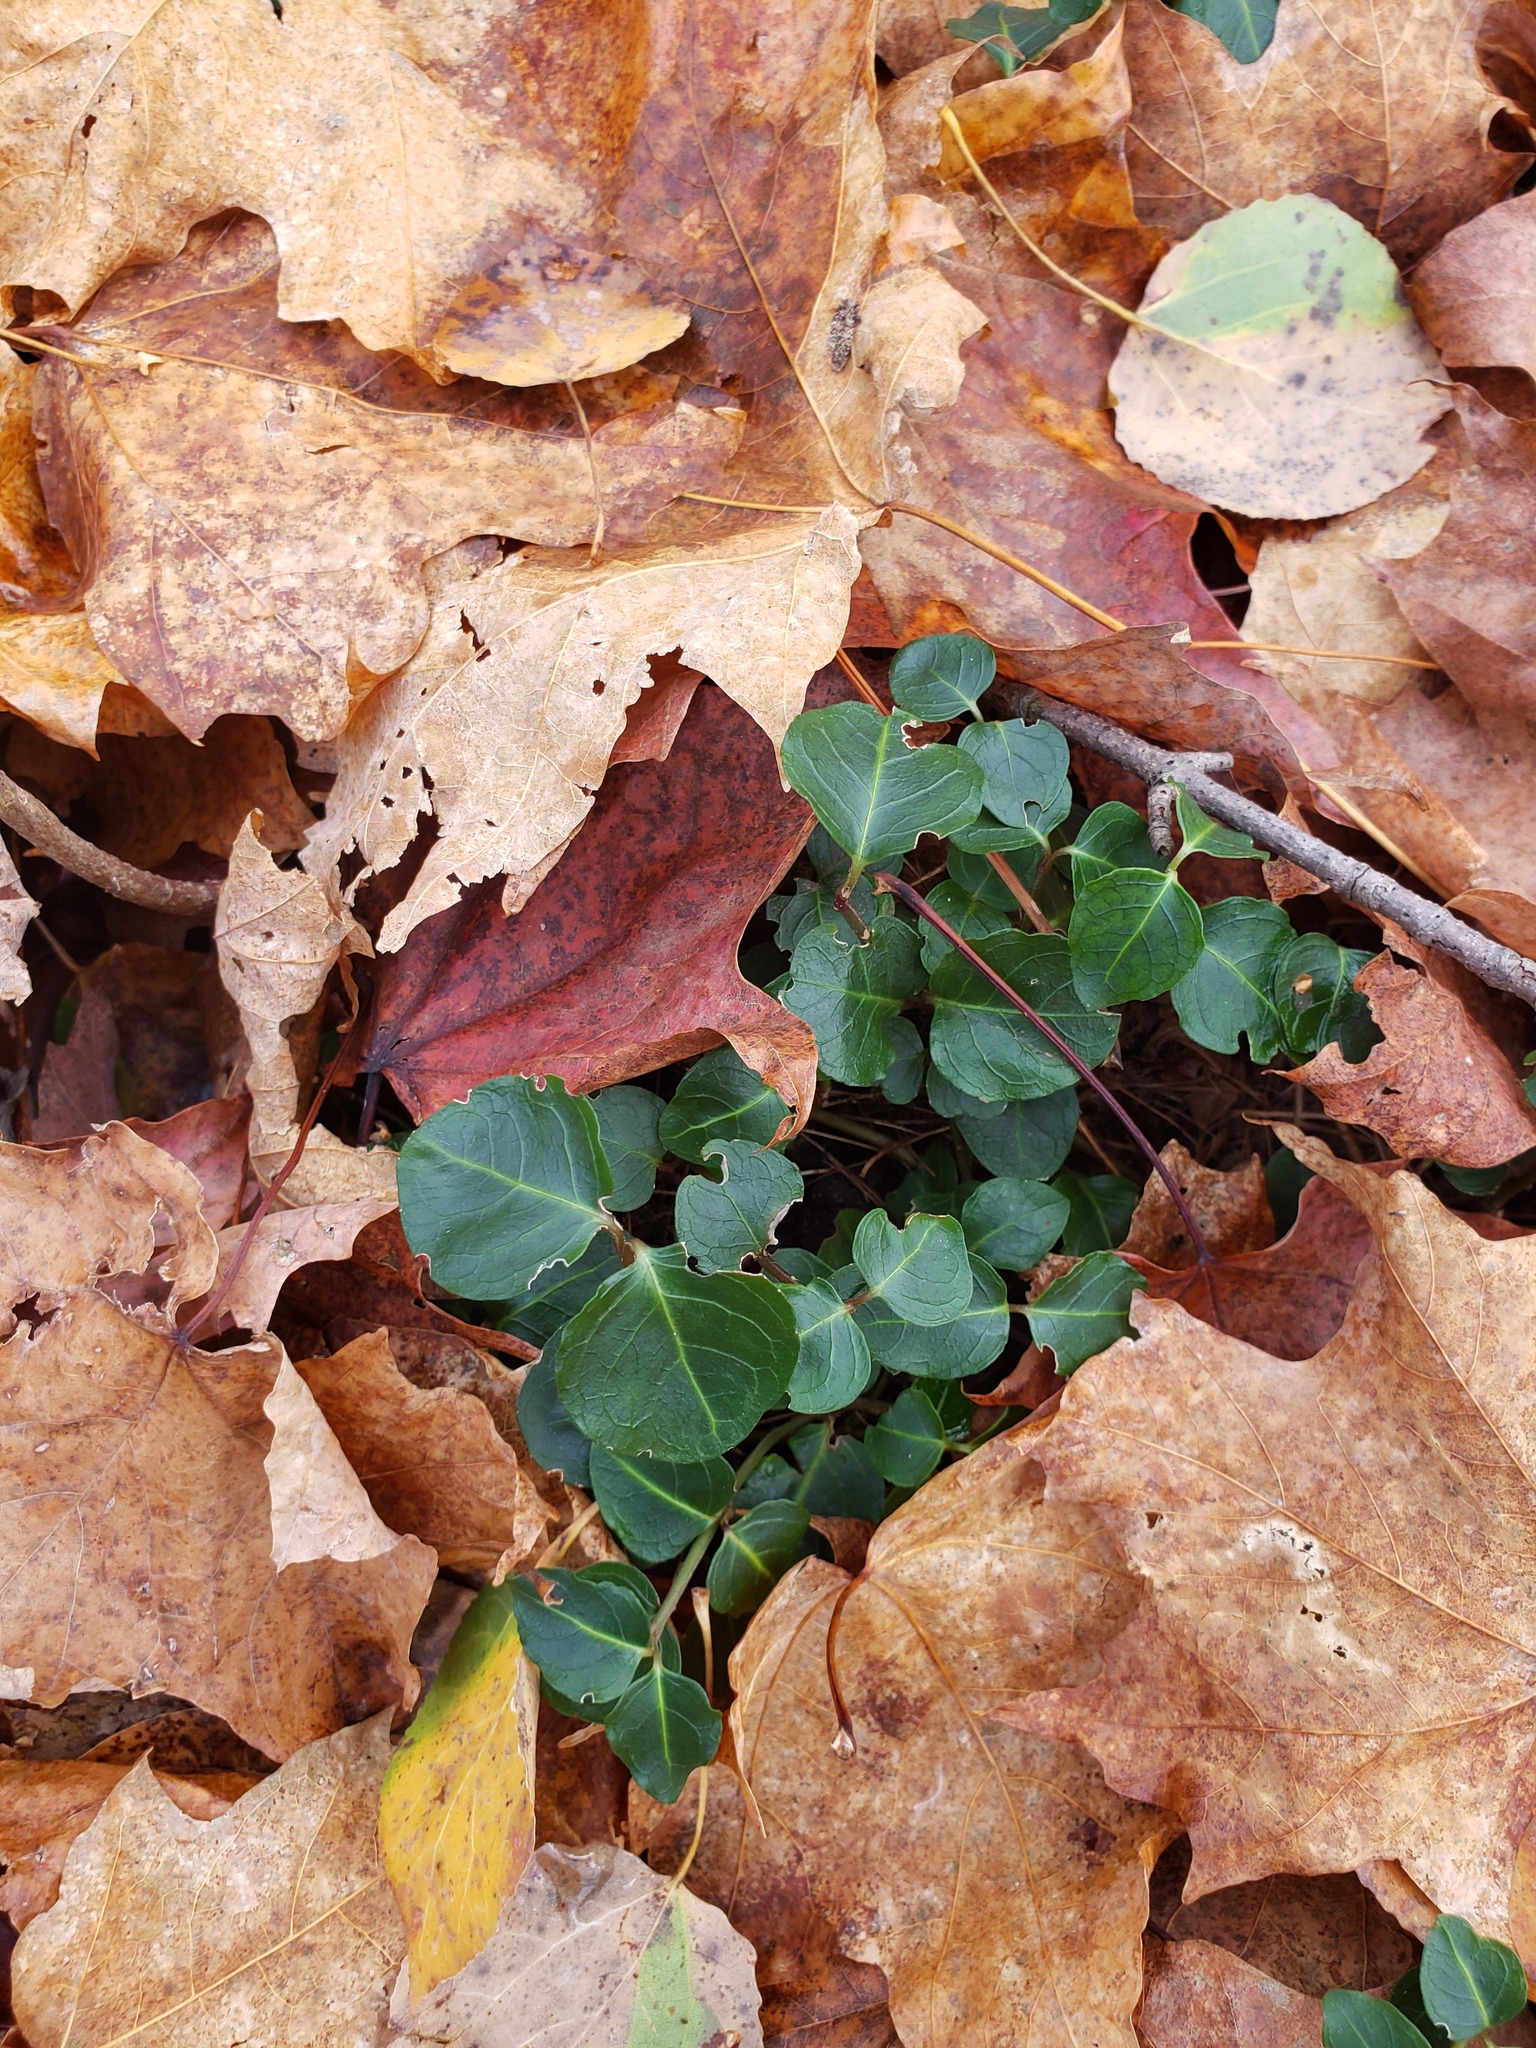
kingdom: Plantae
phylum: Tracheophyta
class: Magnoliopsida
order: Gentianales
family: Rubiaceae
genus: Mitchella
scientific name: Mitchella repens
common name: Partridge-berry
